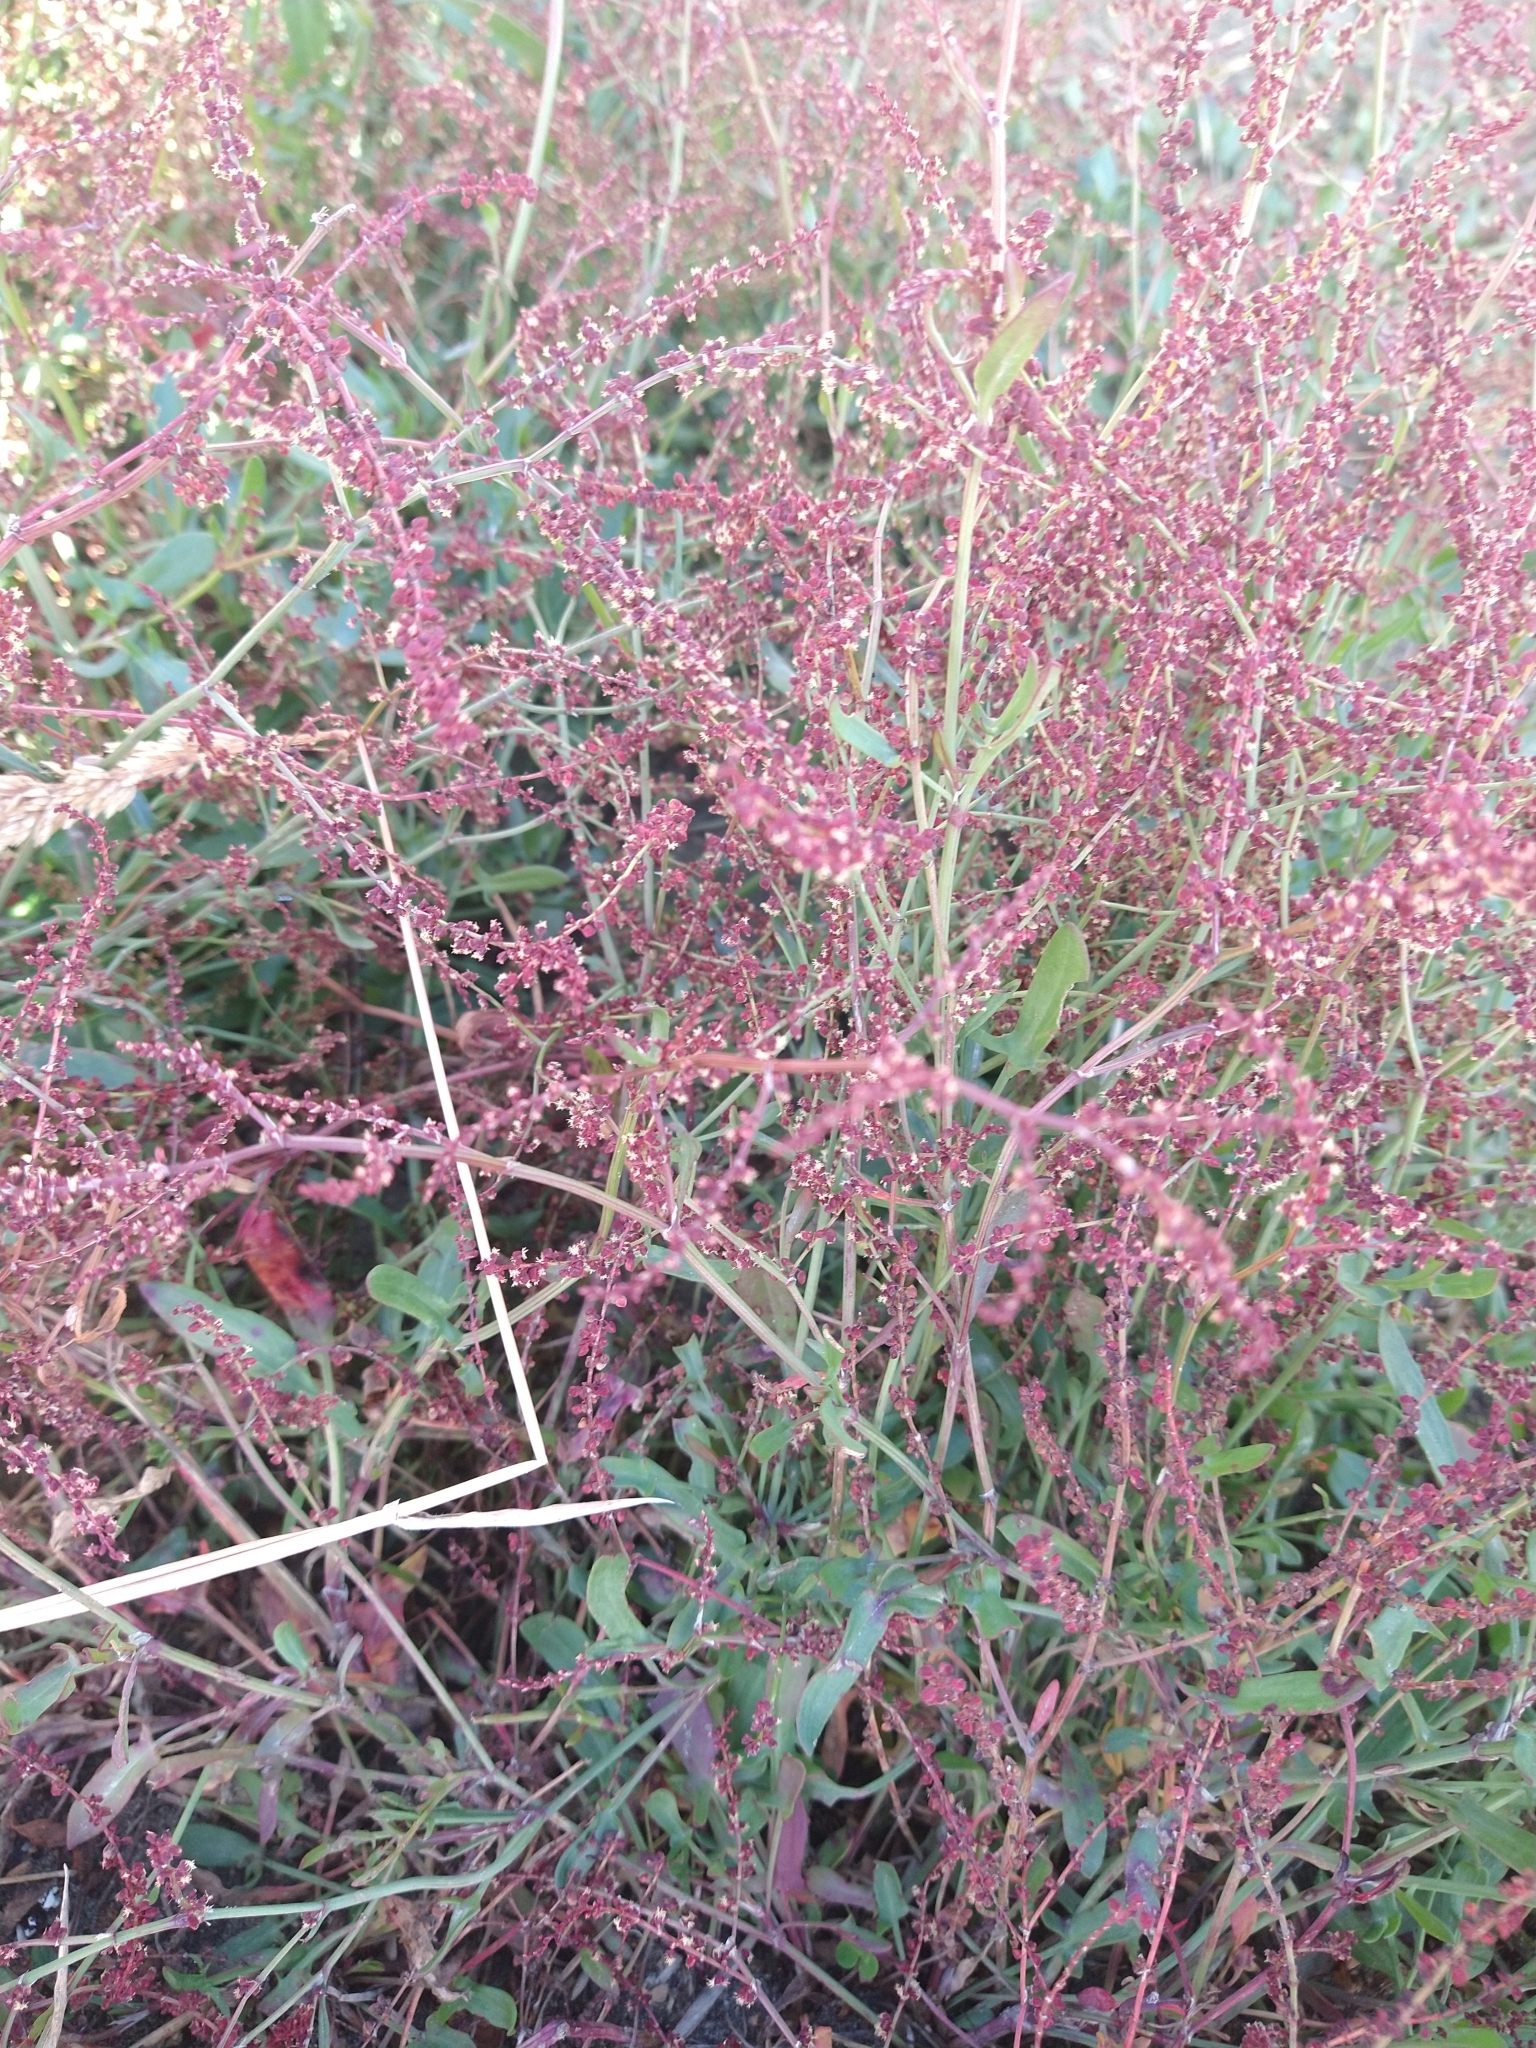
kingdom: Plantae
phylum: Tracheophyta
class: Magnoliopsida
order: Caryophyllales
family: Polygonaceae
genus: Rumex
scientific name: Rumex acetosella
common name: Common sheep sorrel
